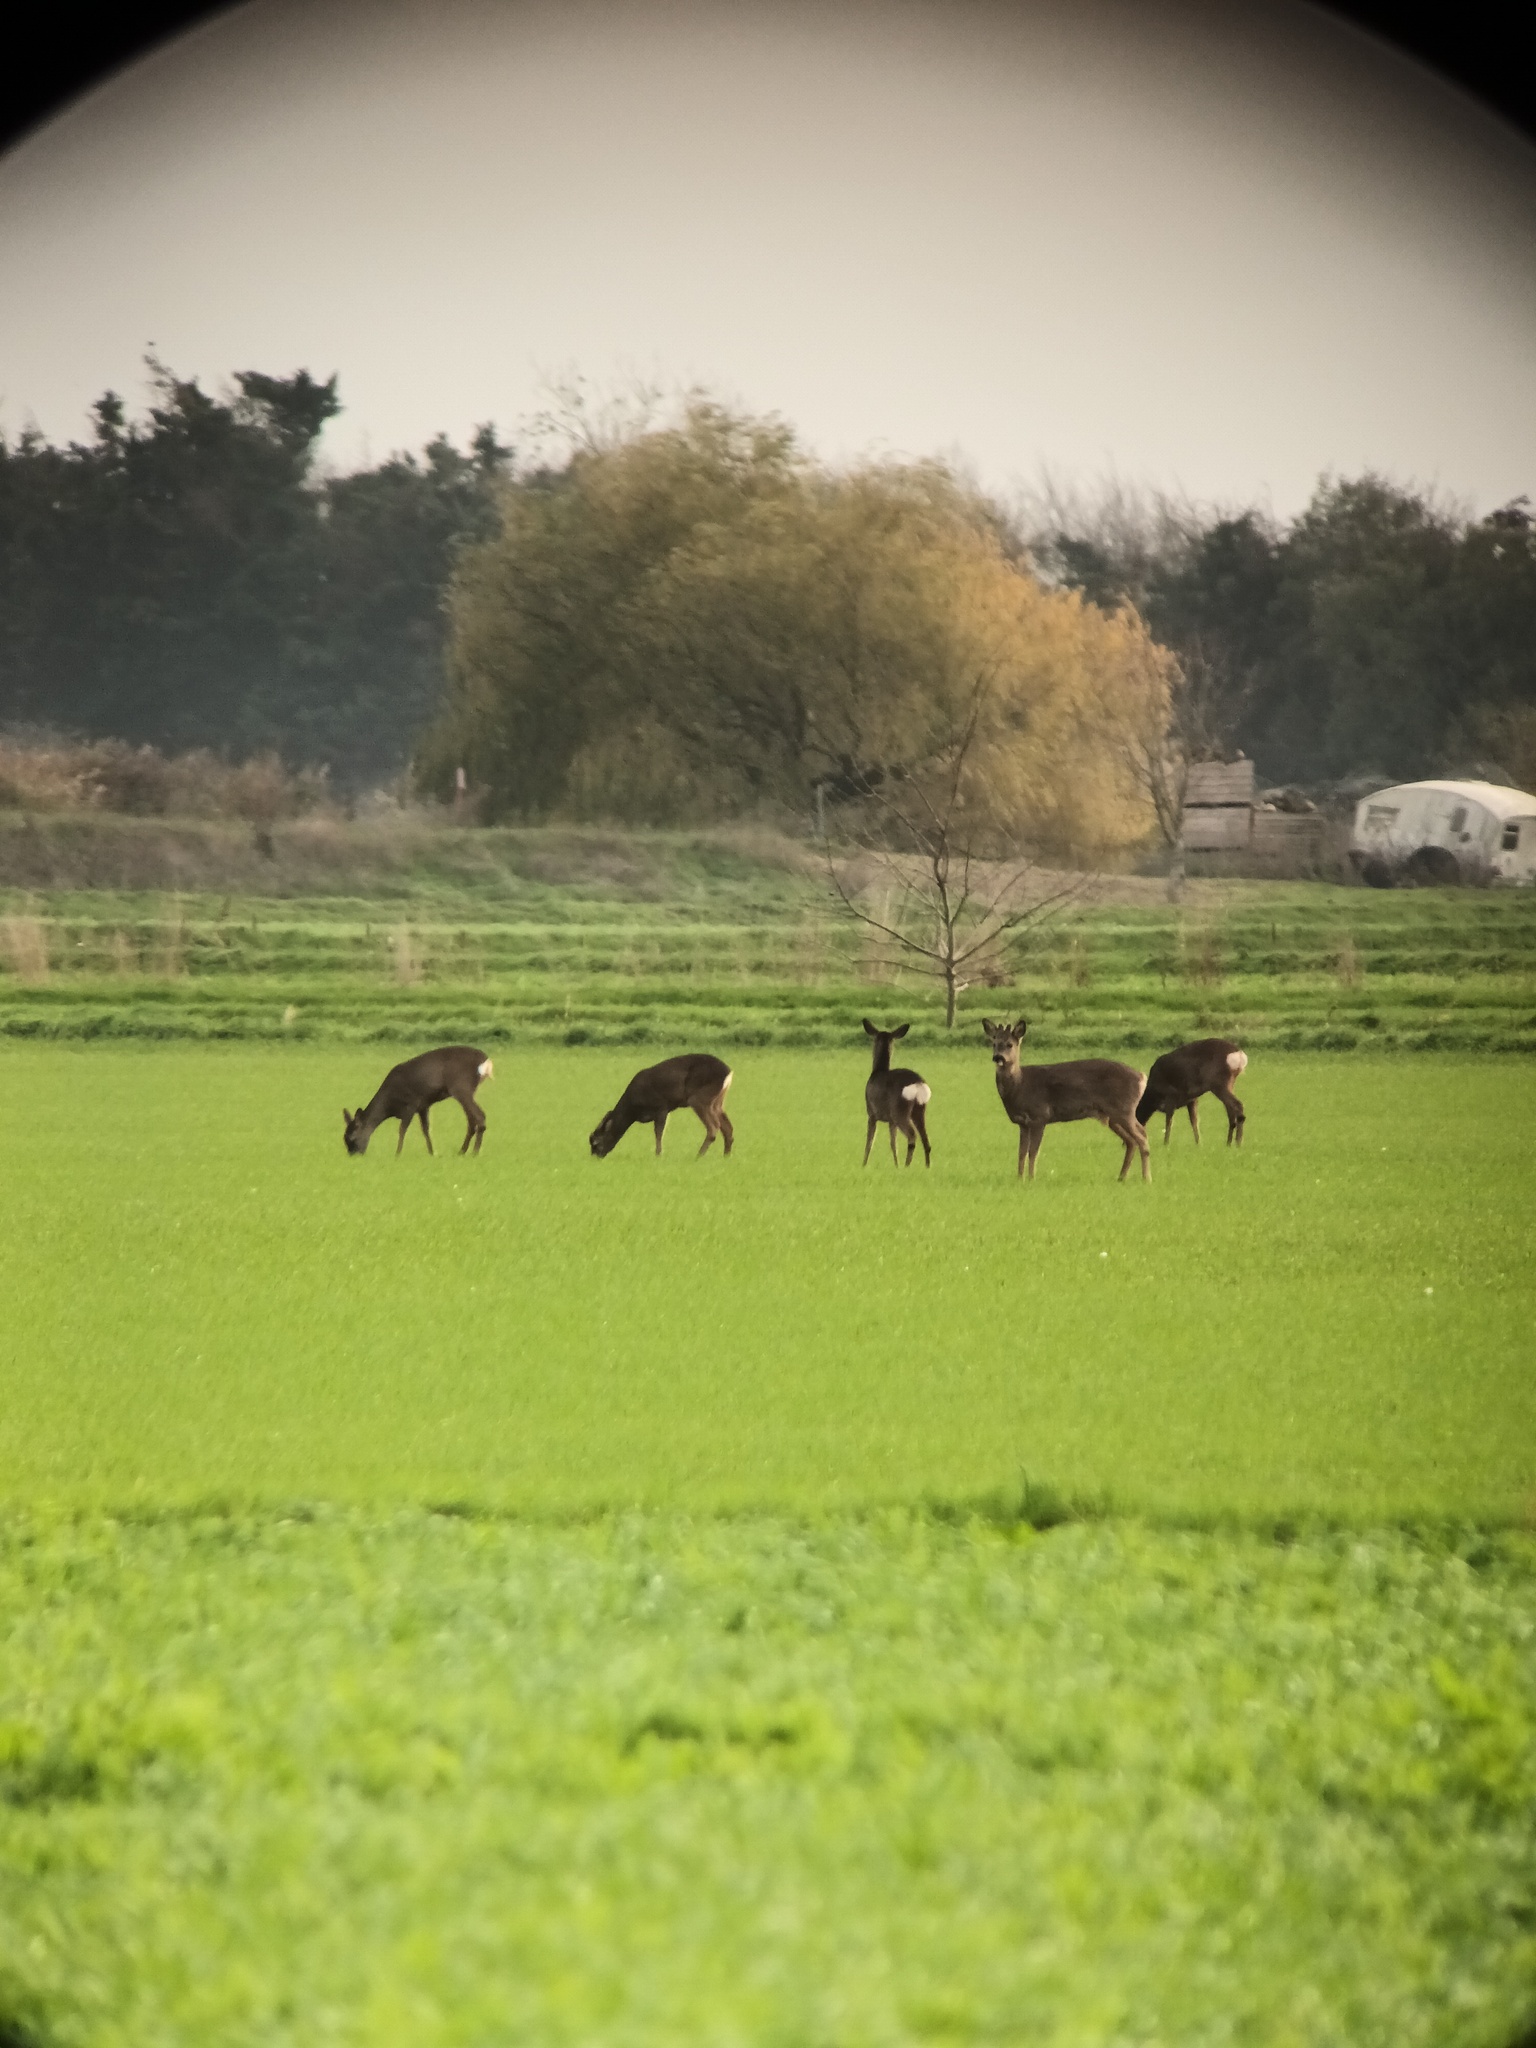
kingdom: Animalia
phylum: Chordata
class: Mammalia
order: Artiodactyla
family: Cervidae
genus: Capreolus
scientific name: Capreolus capreolus
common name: Western roe deer
